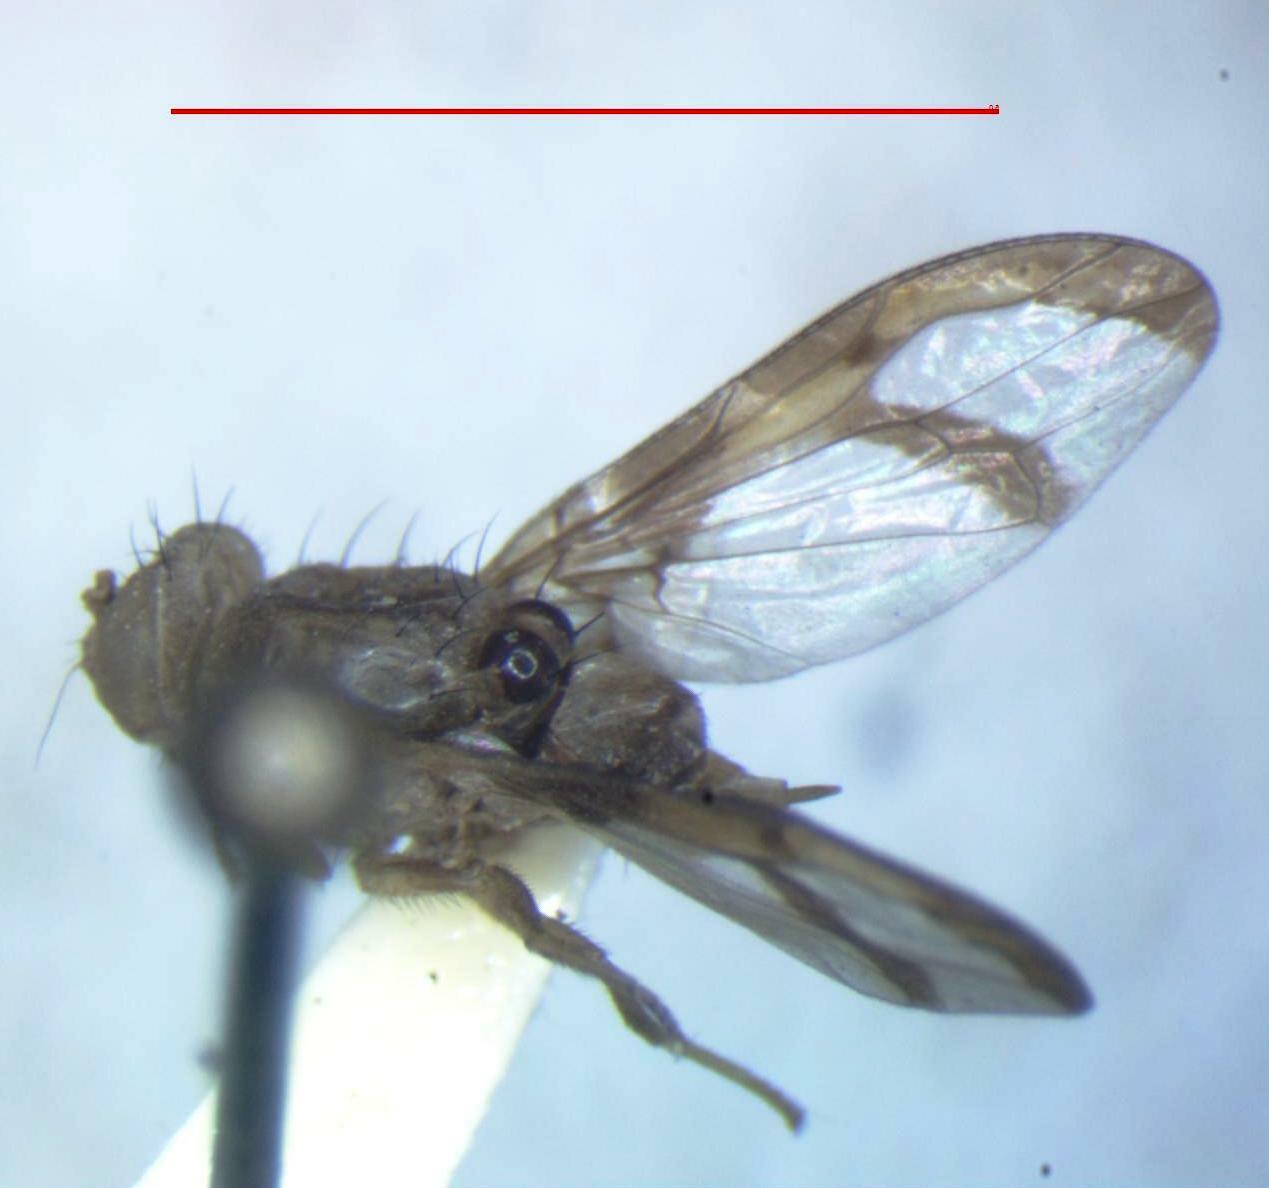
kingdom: Animalia
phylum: Arthropoda
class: Insecta
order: Diptera
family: Ulidiidae
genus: Xanthacrona
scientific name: Xanthacrona bipustulata
